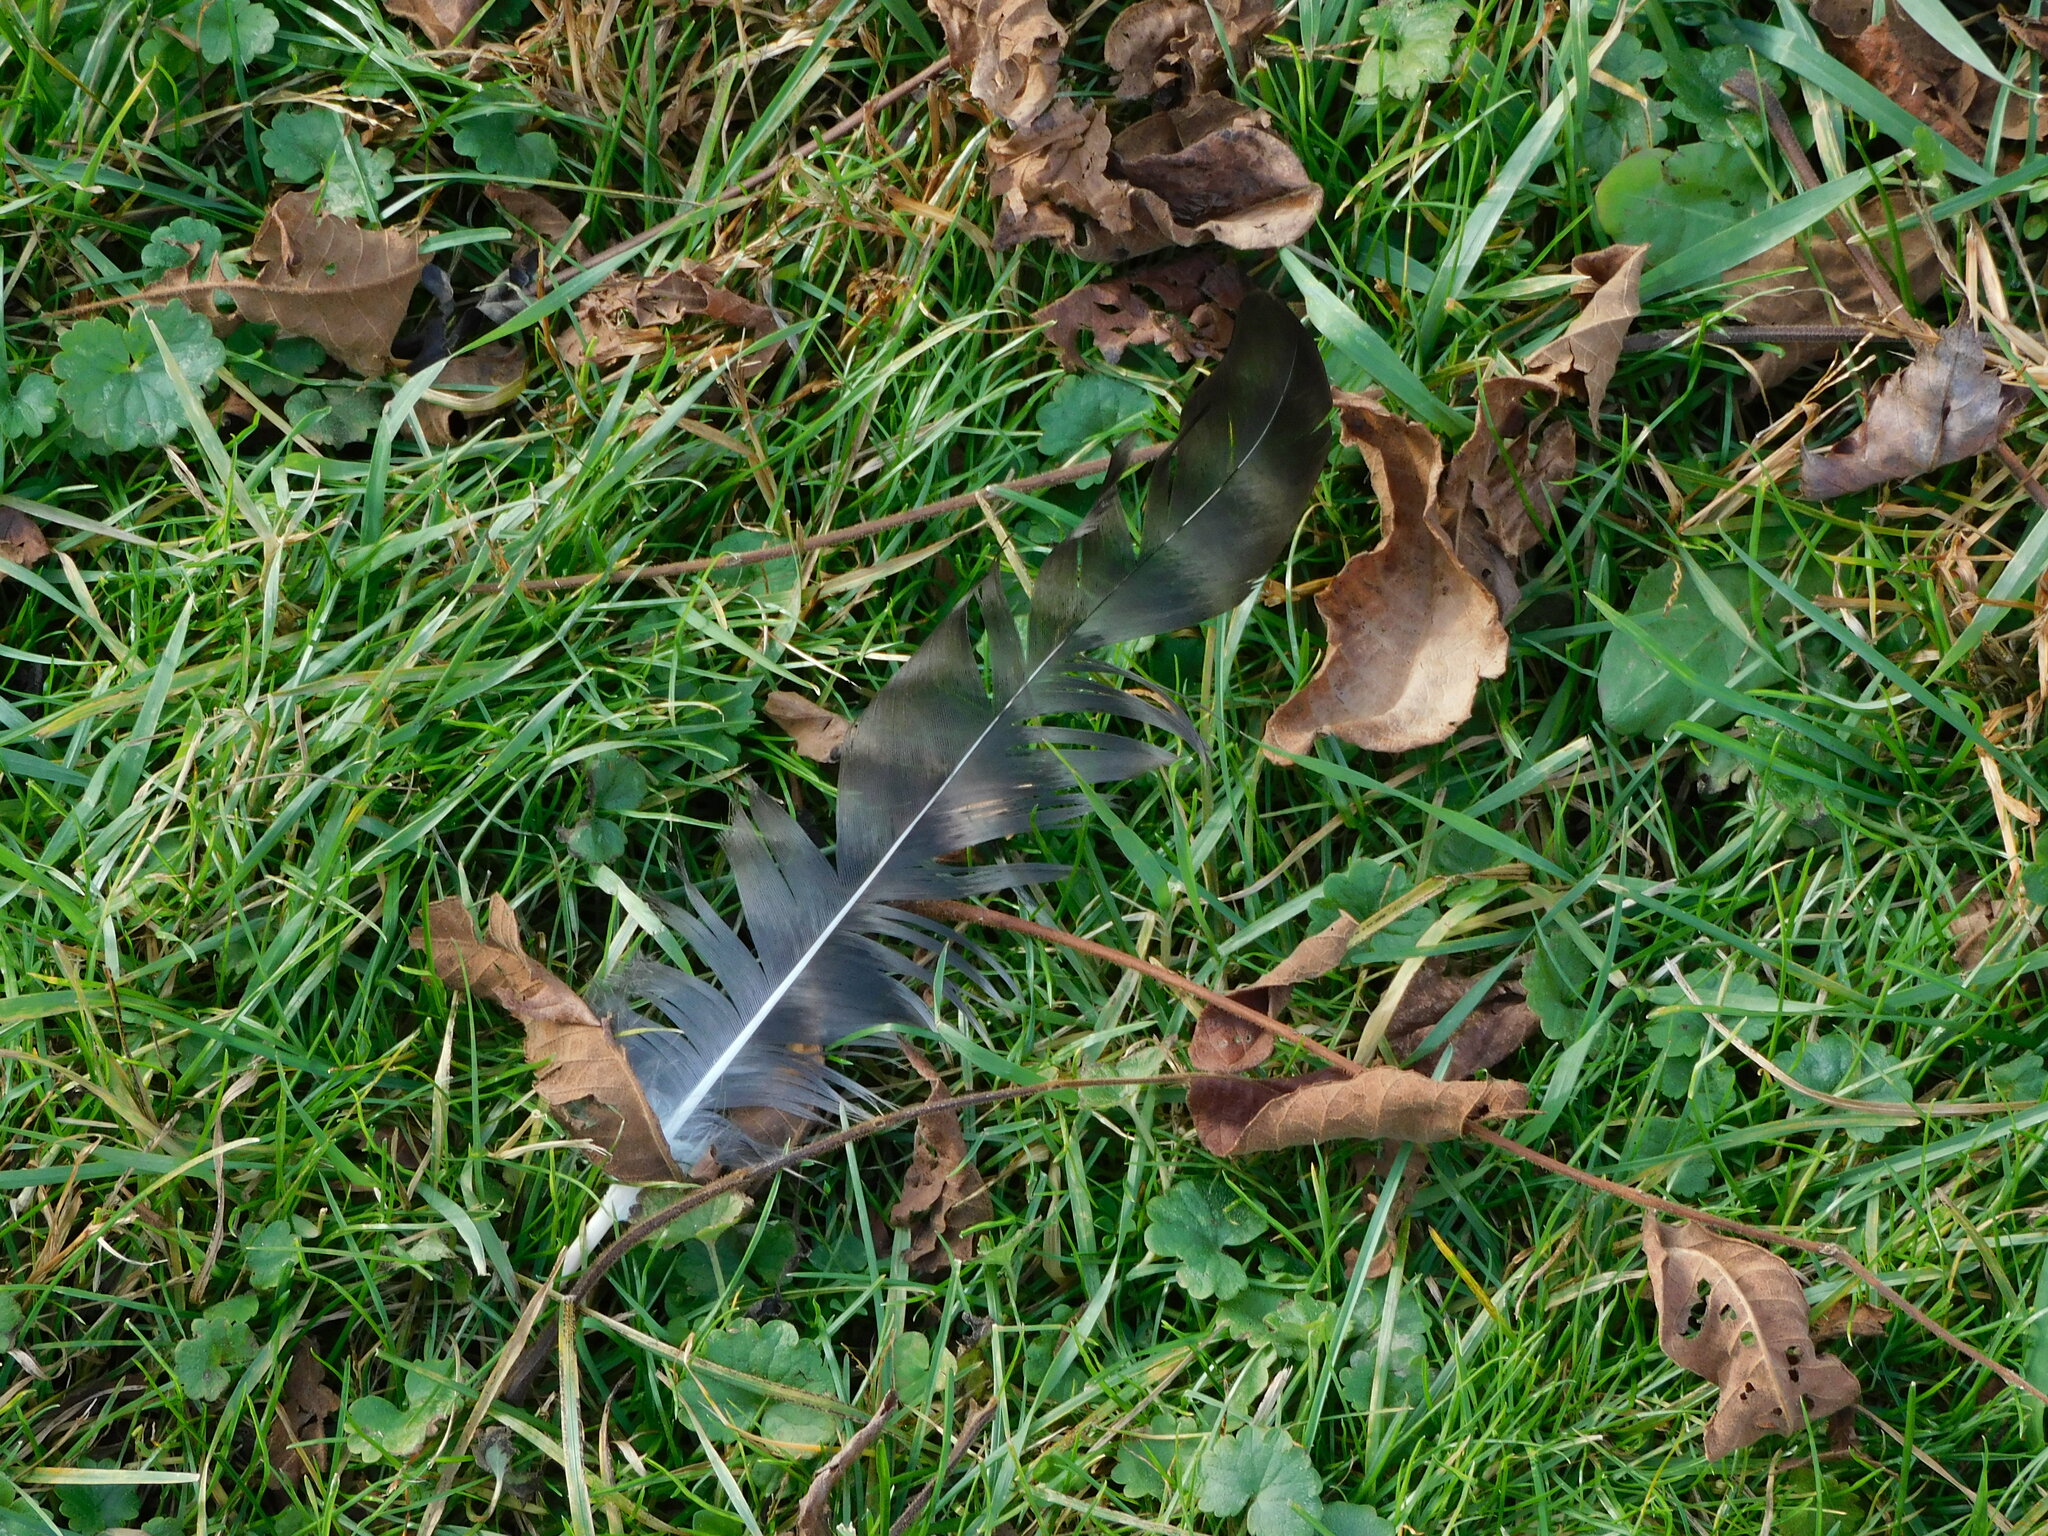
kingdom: Animalia
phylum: Chordata
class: Aves
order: Galliformes
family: Phasianidae
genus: Gallus
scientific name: Gallus gallus
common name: Red junglefowl
